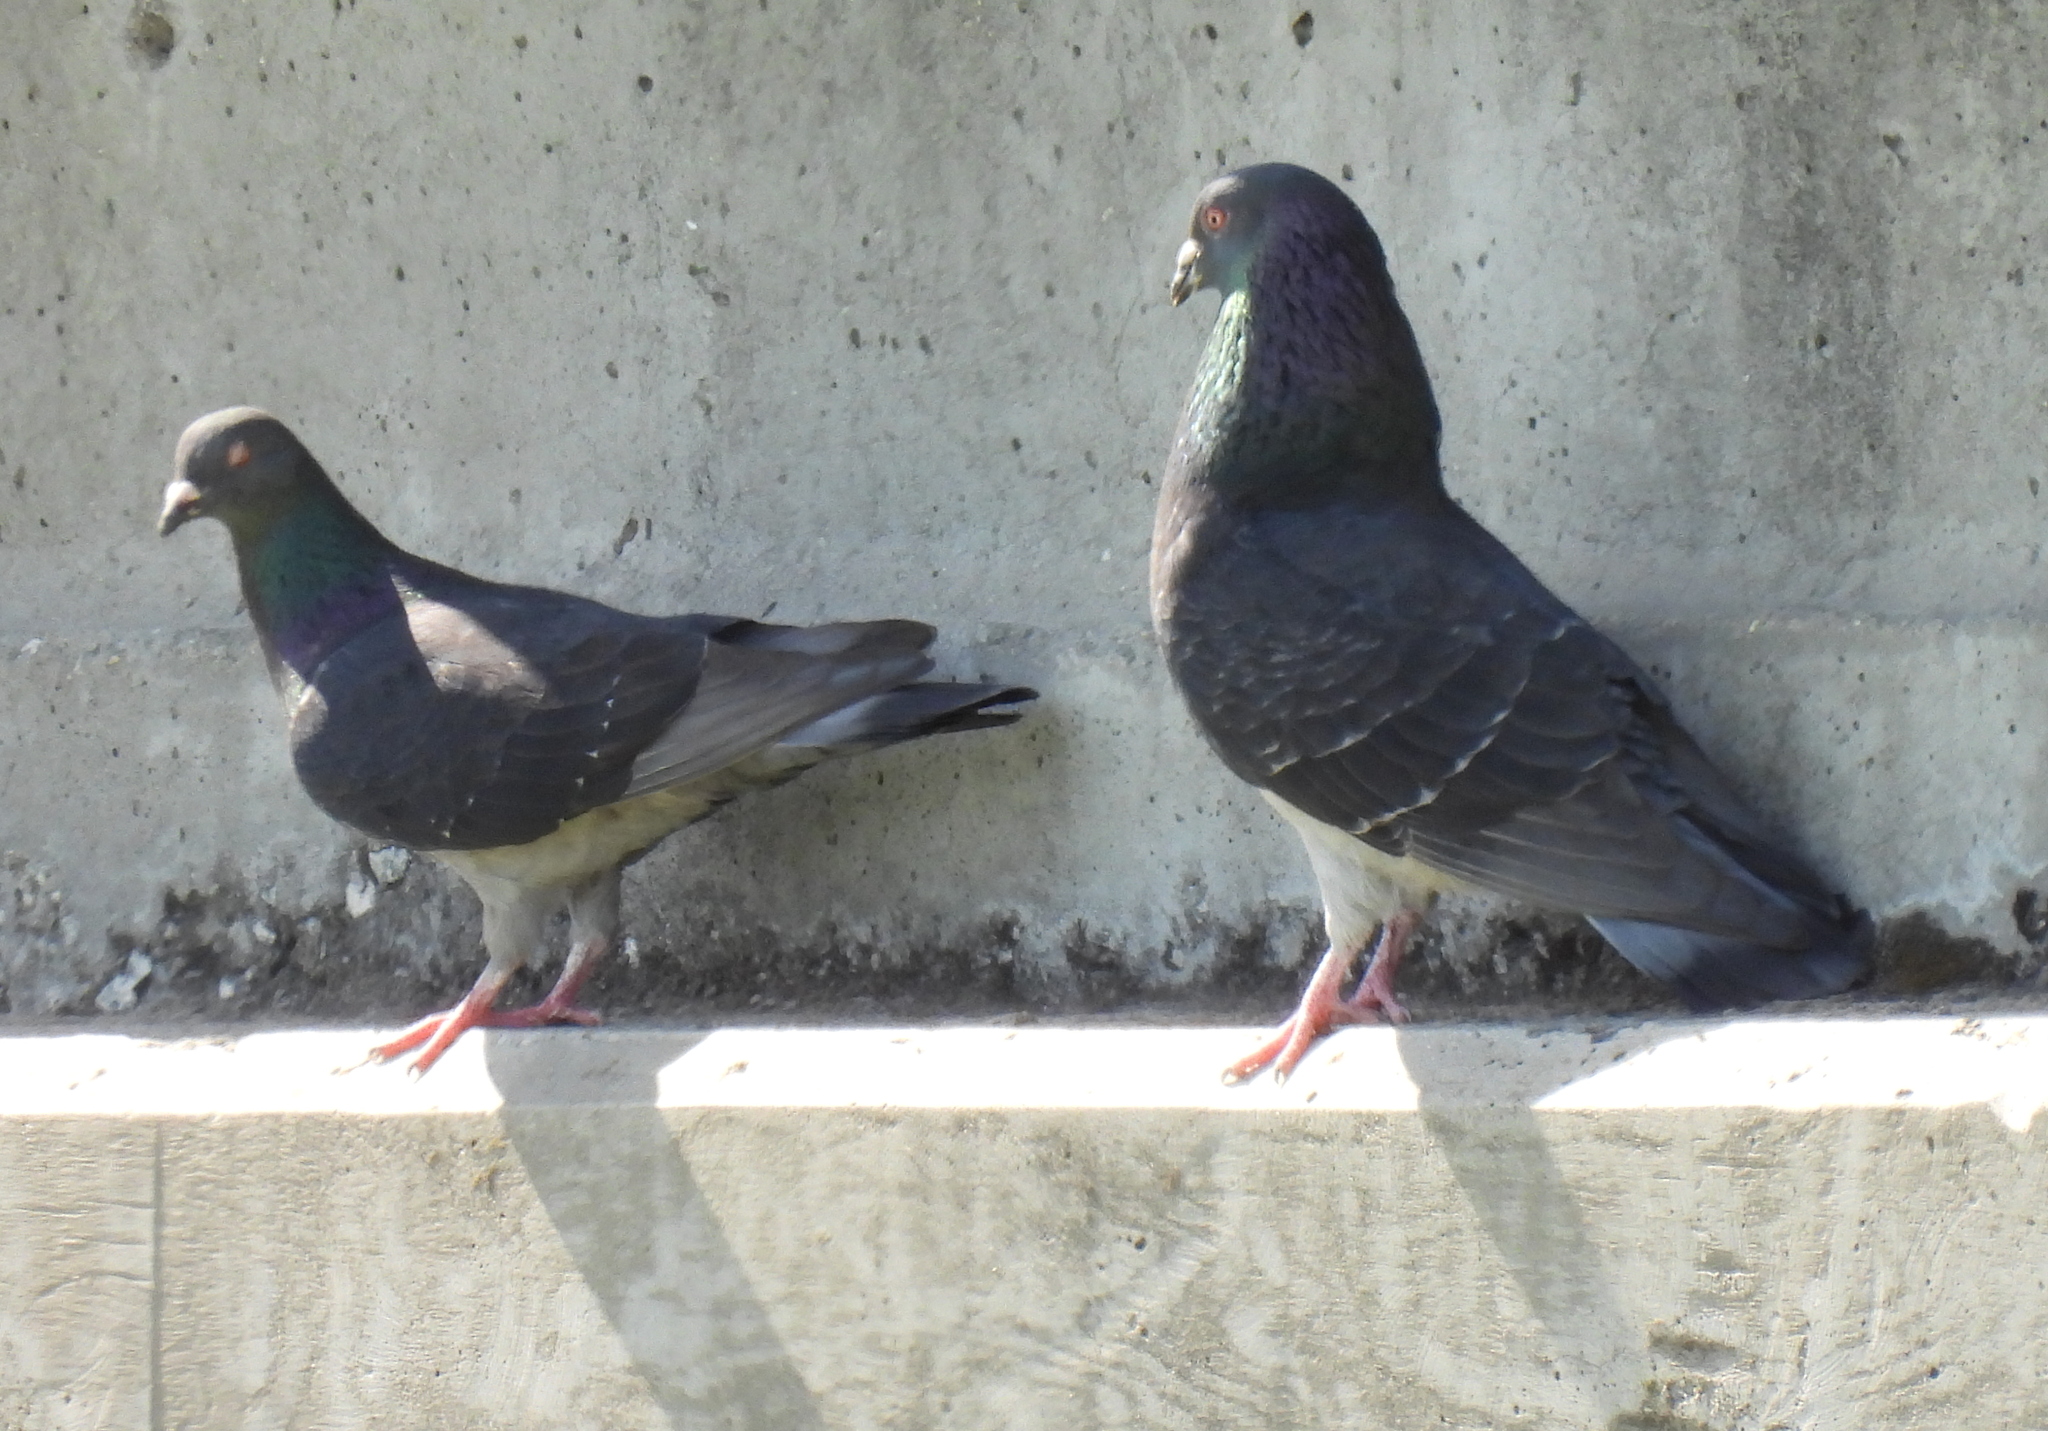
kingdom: Animalia
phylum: Chordata
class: Aves
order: Columbiformes
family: Columbidae
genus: Columba
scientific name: Columba livia
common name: Rock pigeon
